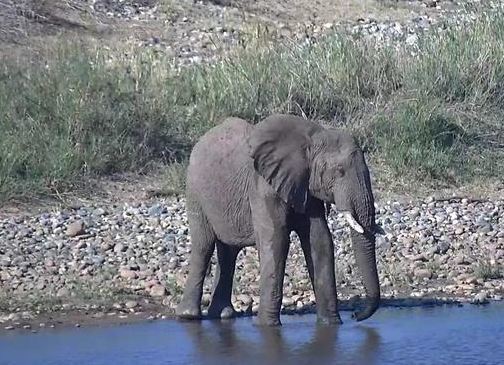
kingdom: Animalia
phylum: Chordata
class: Mammalia
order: Proboscidea
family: Elephantidae
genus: Loxodonta
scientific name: Loxodonta africana
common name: African elephant
